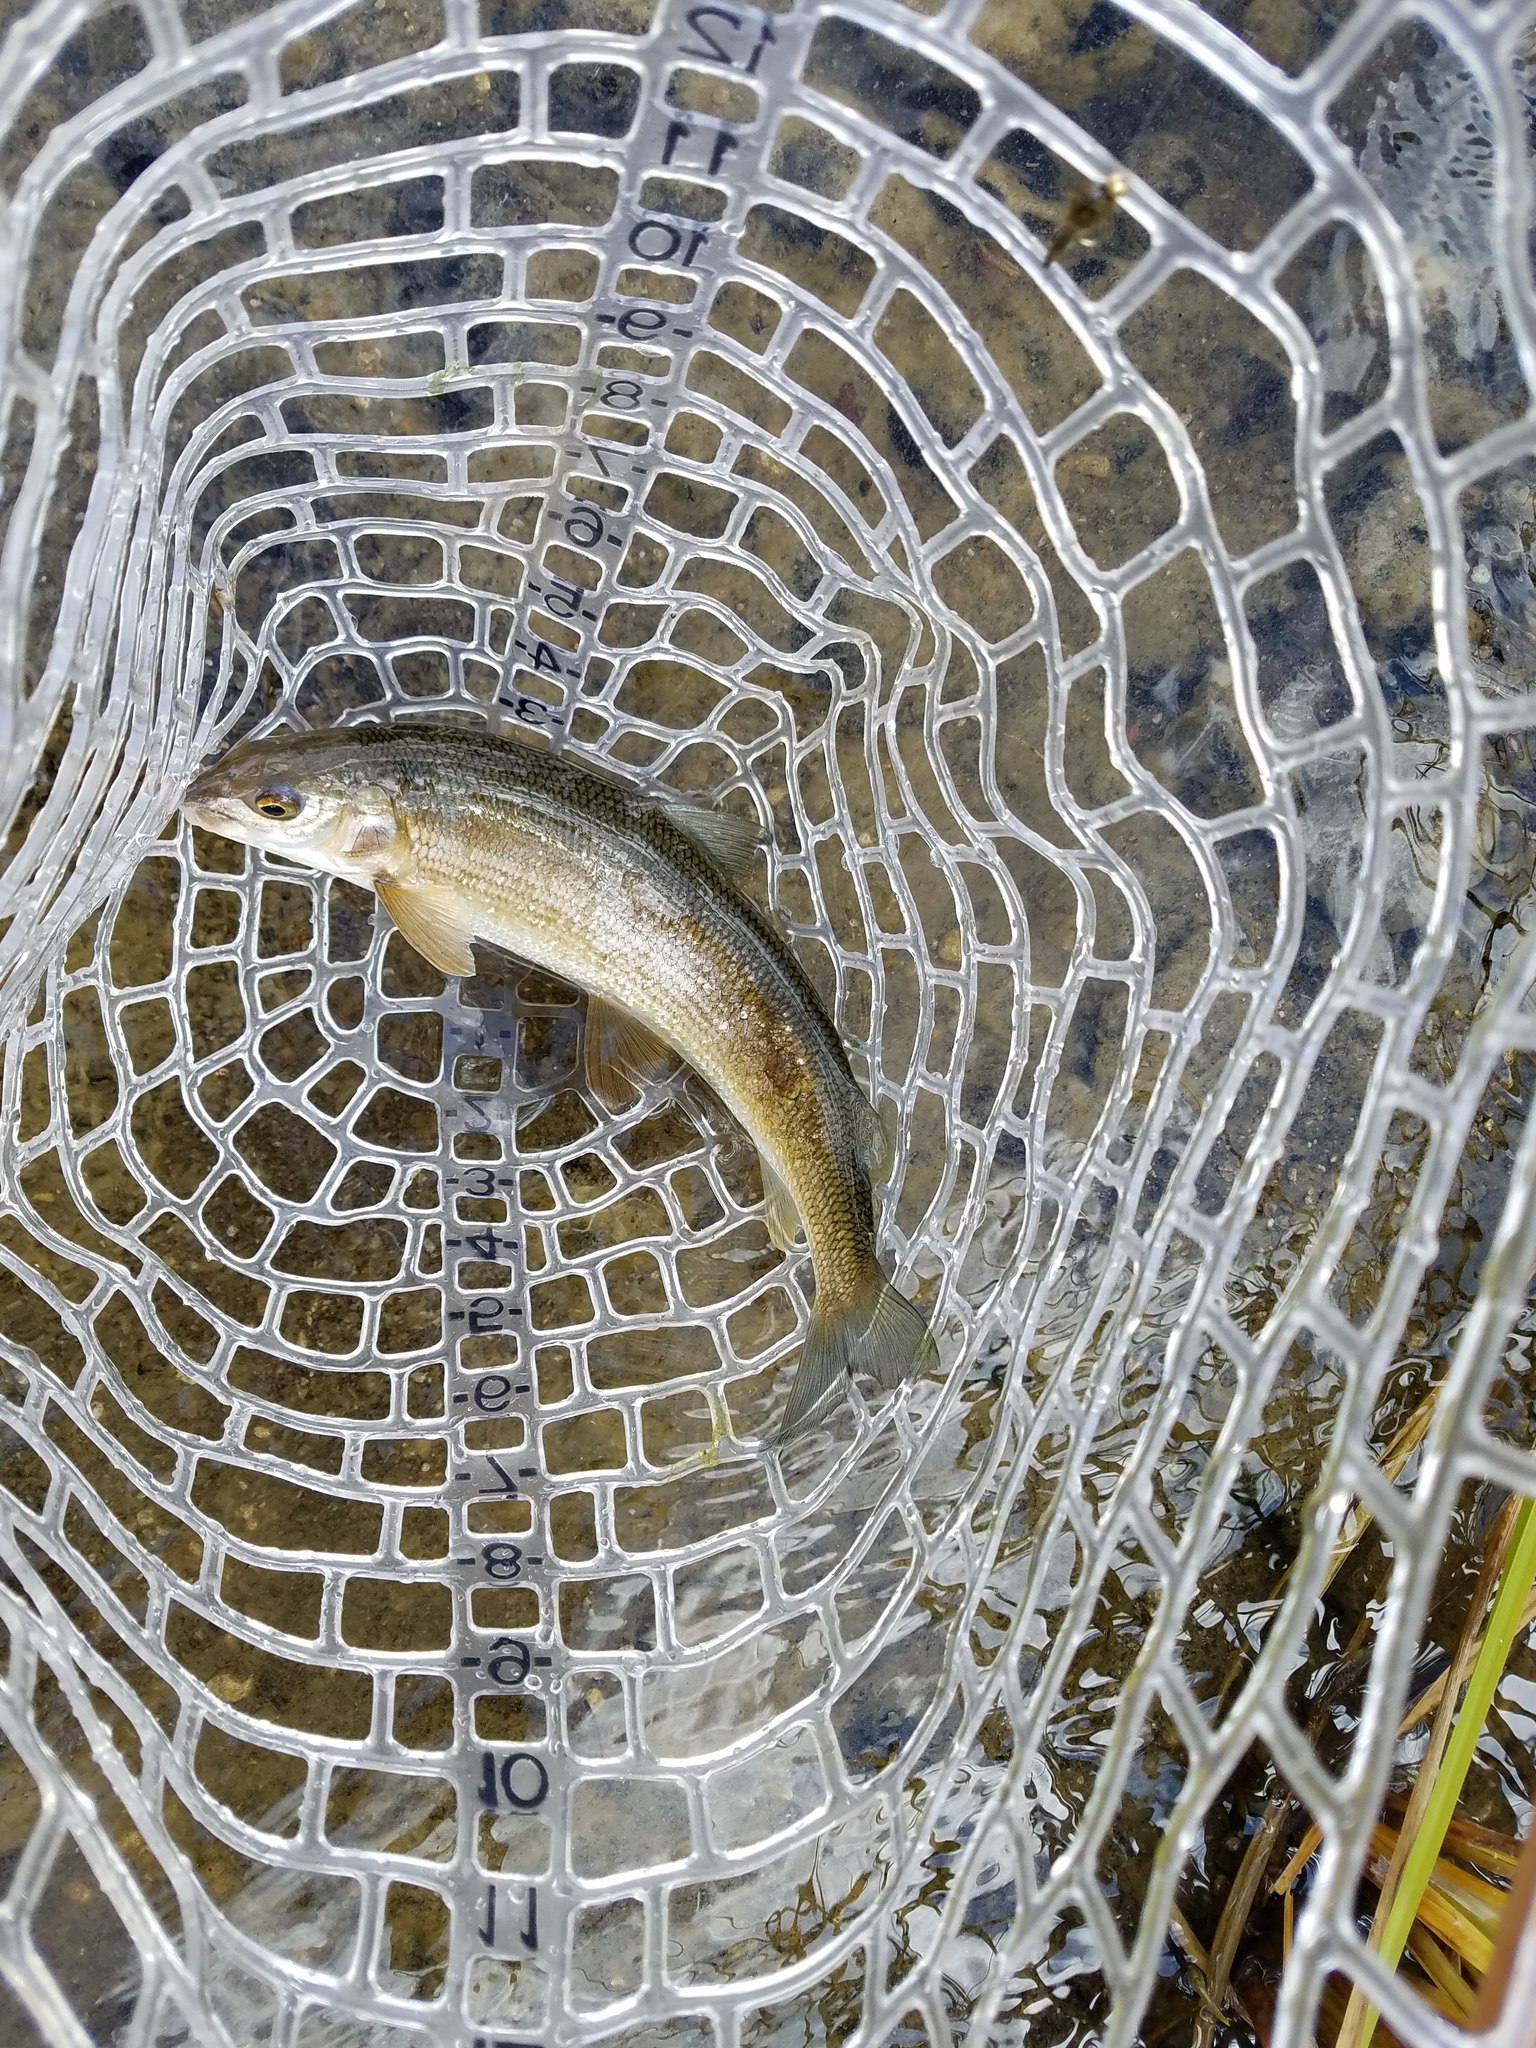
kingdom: Animalia
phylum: Chordata
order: Salmoniformes
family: Salmonidae
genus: Prosopium
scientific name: Prosopium williamsoni
